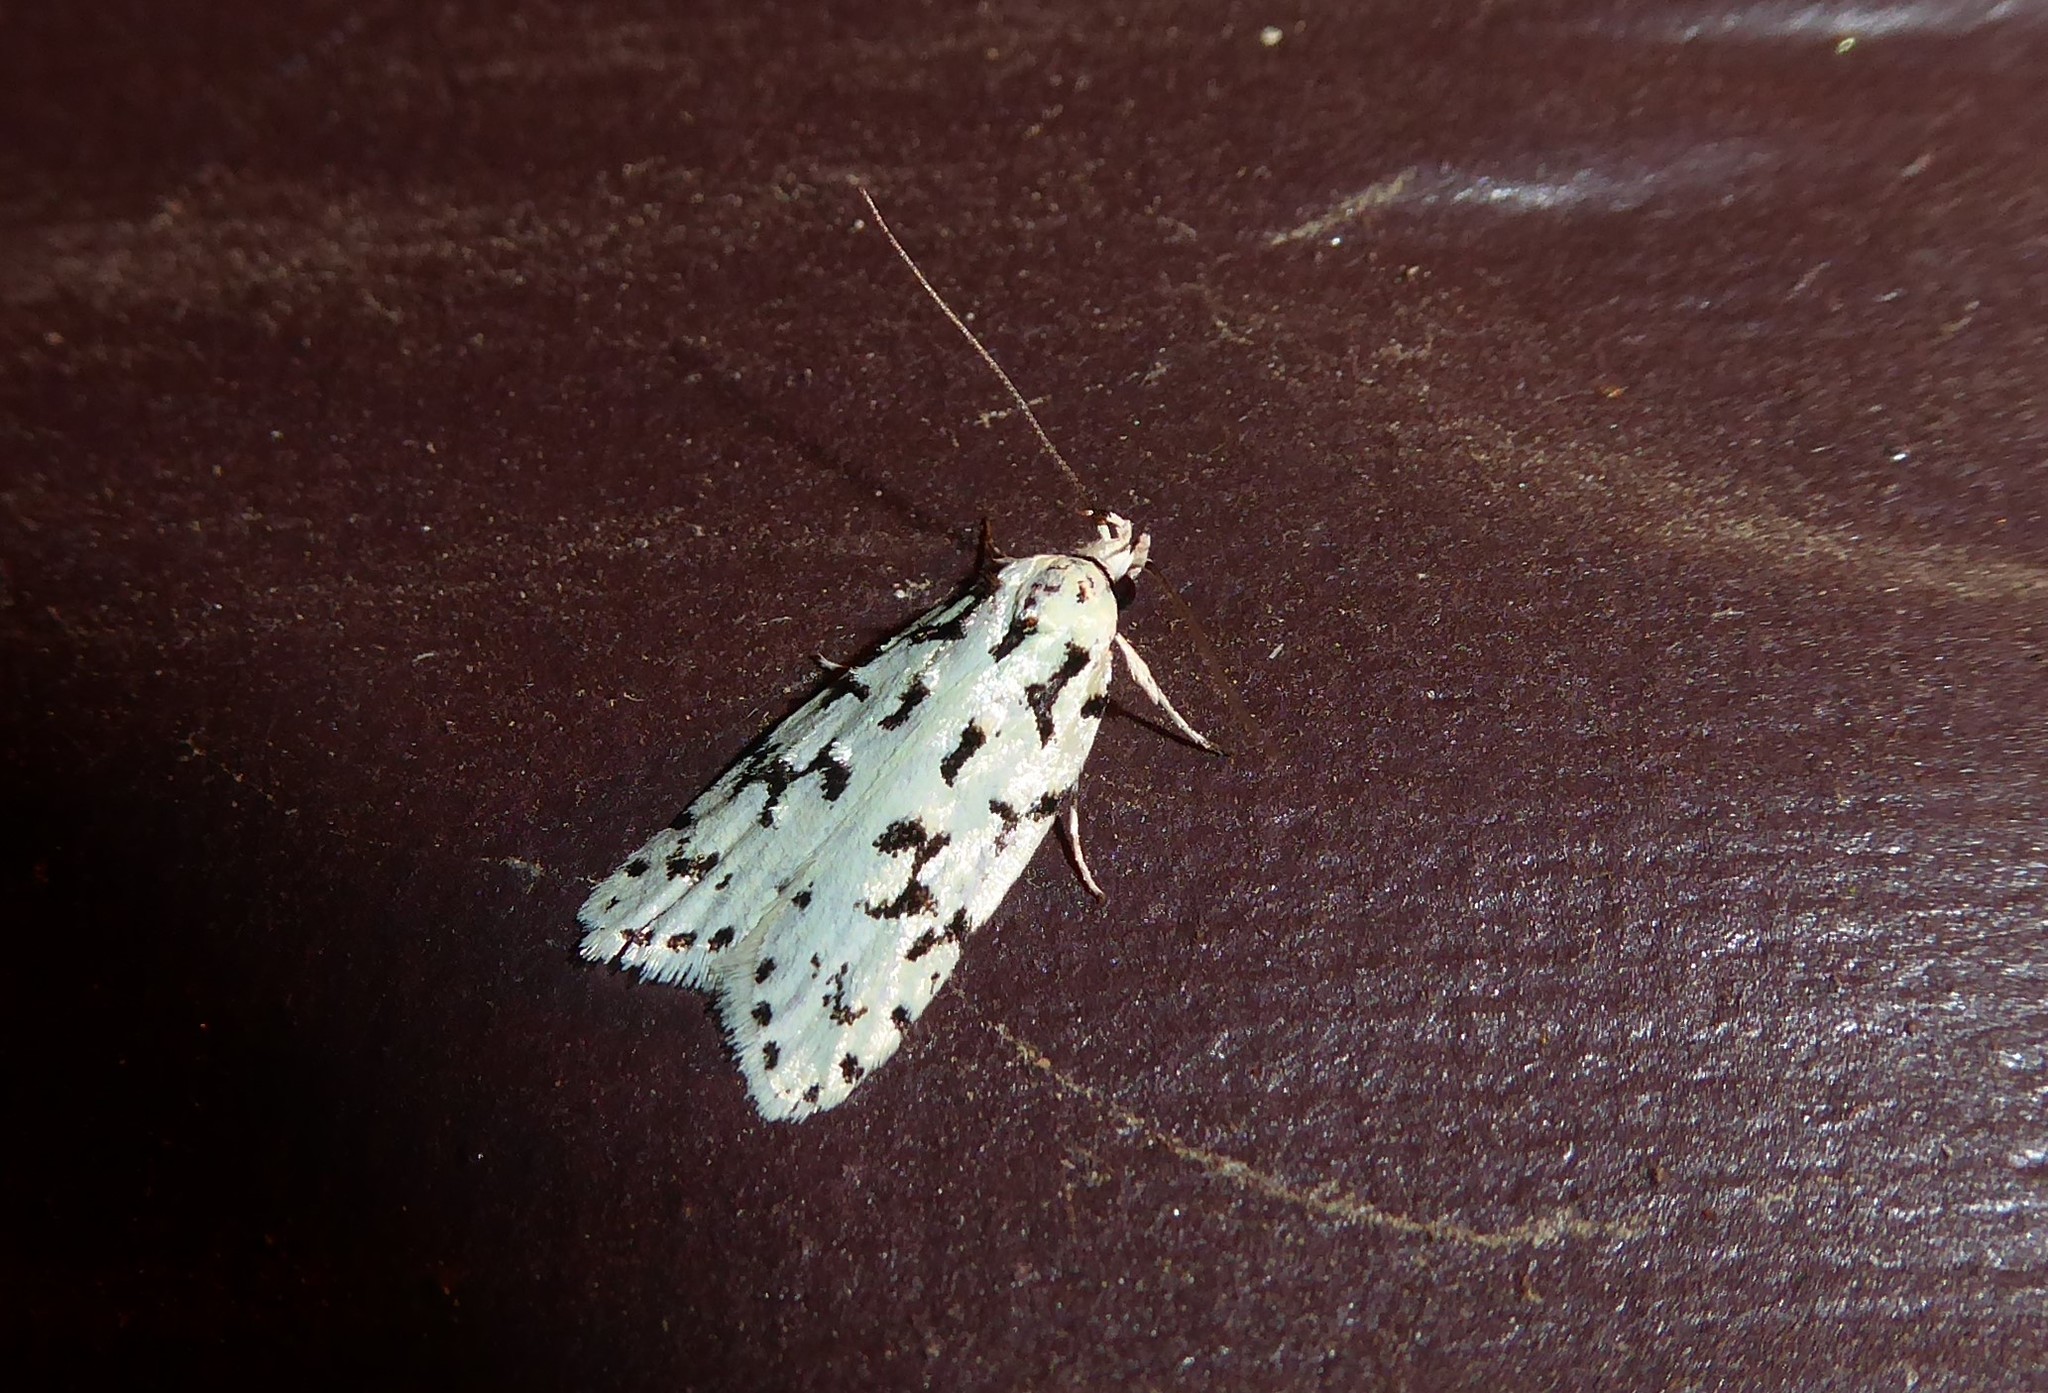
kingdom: Animalia
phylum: Arthropoda
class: Insecta
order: Lepidoptera
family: Oecophoridae
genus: Izatha
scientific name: Izatha huttoni
